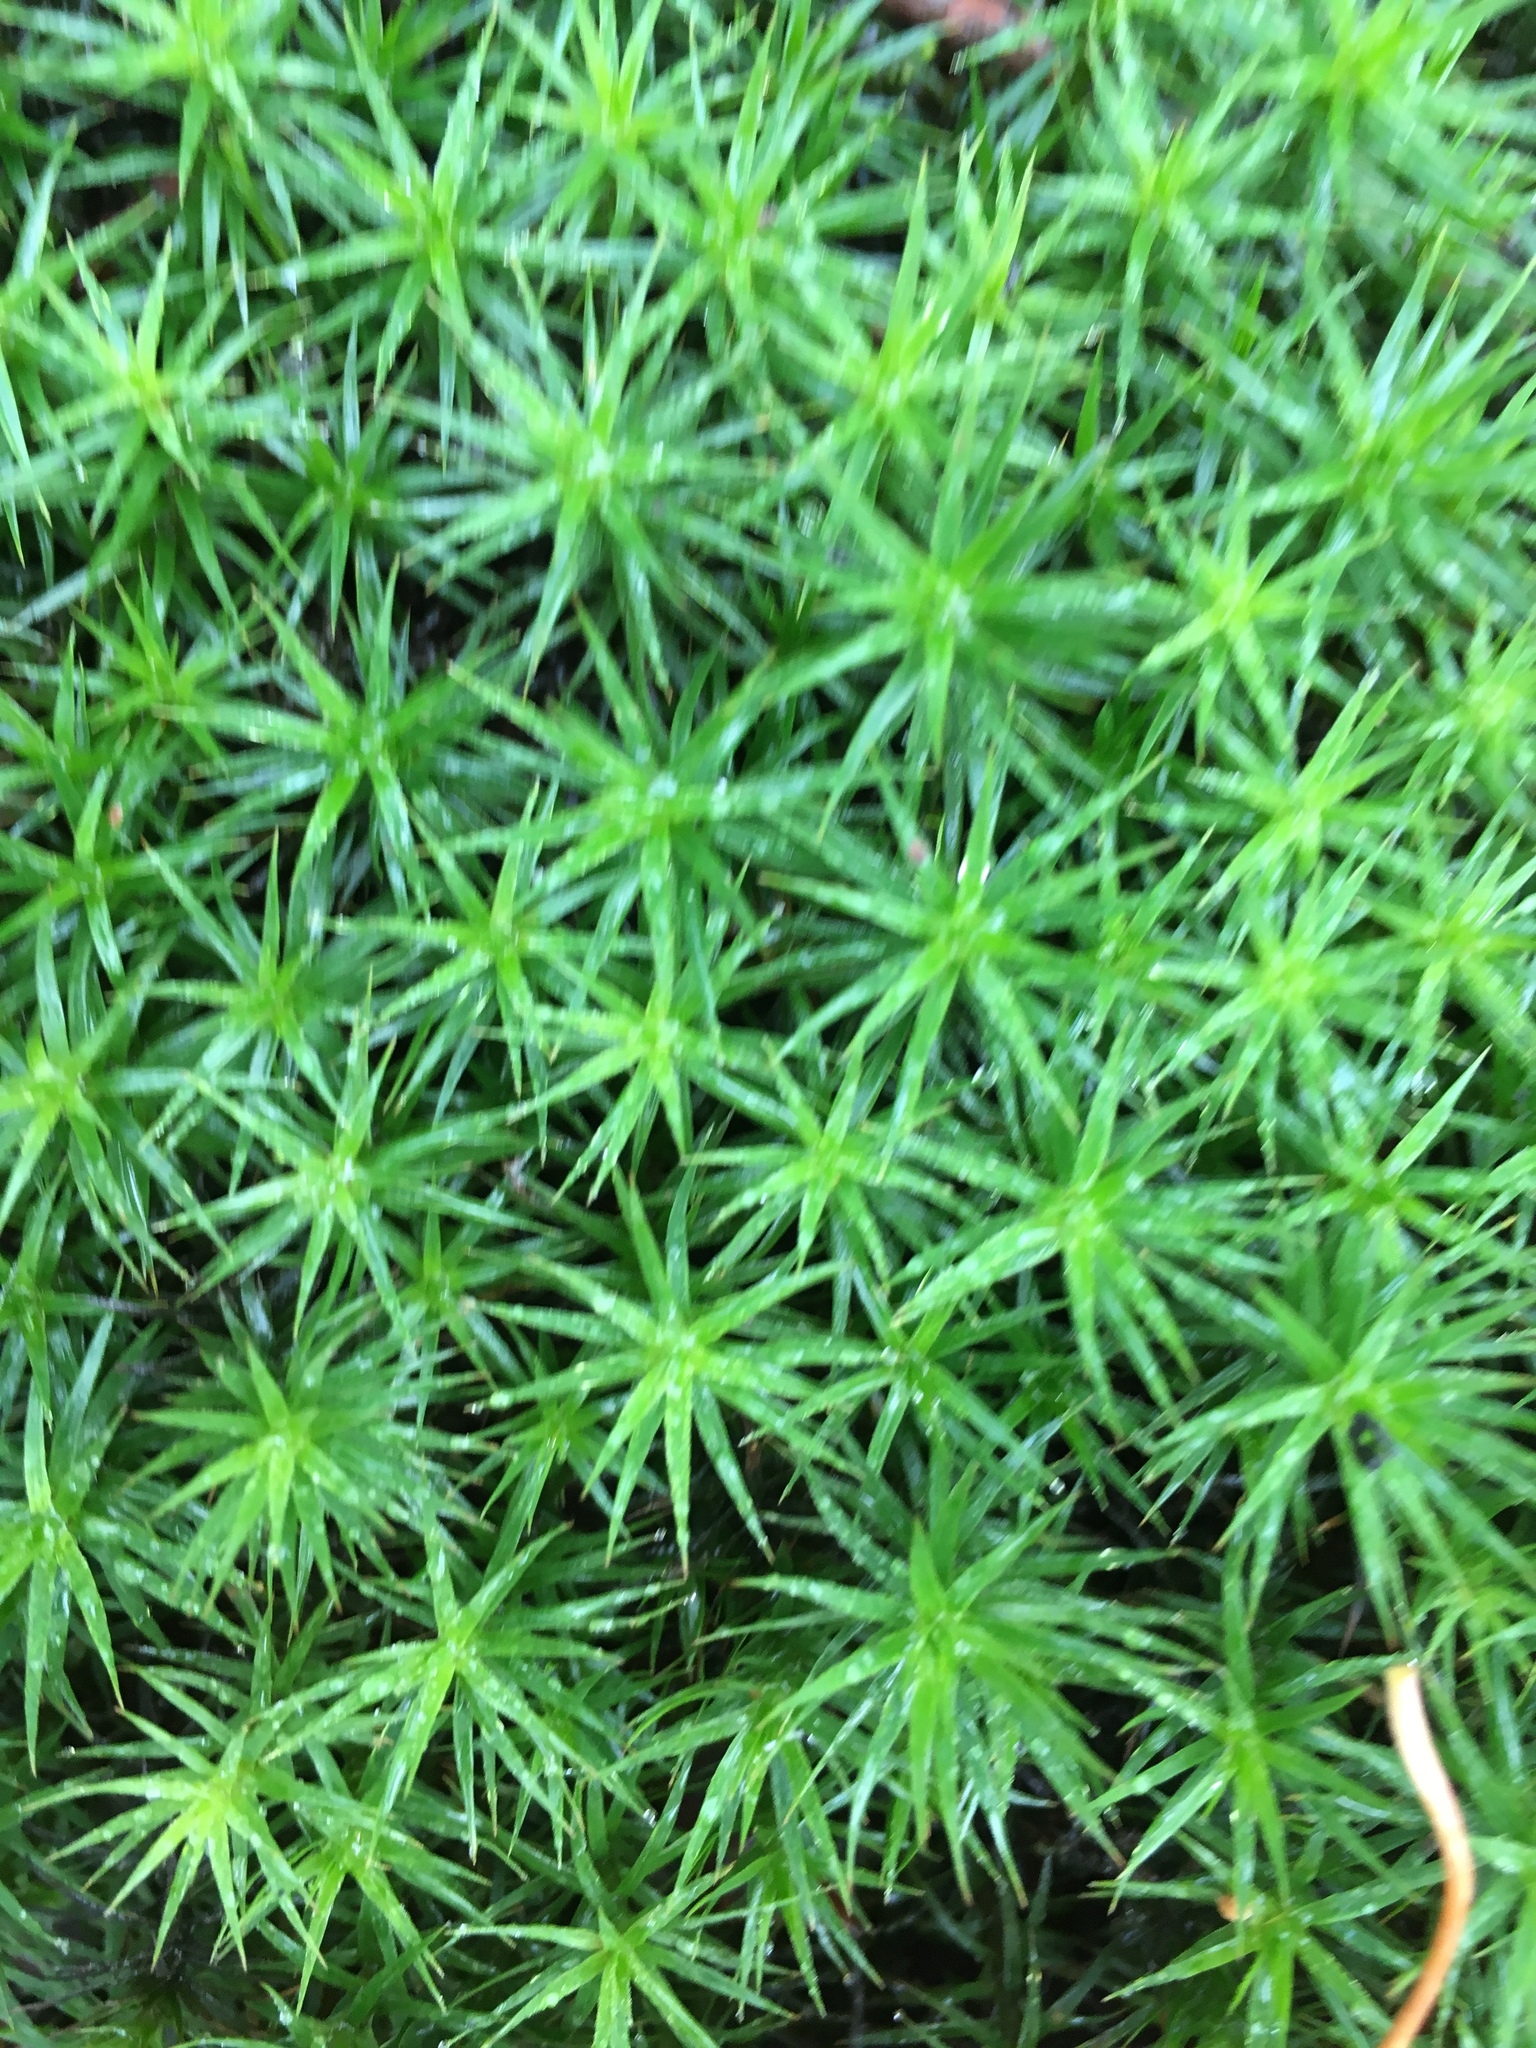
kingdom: Plantae
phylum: Bryophyta
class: Polytrichopsida
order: Polytrichales
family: Polytrichaceae
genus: Polytrichum
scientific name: Polytrichum formosum
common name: Bank haircap moss
